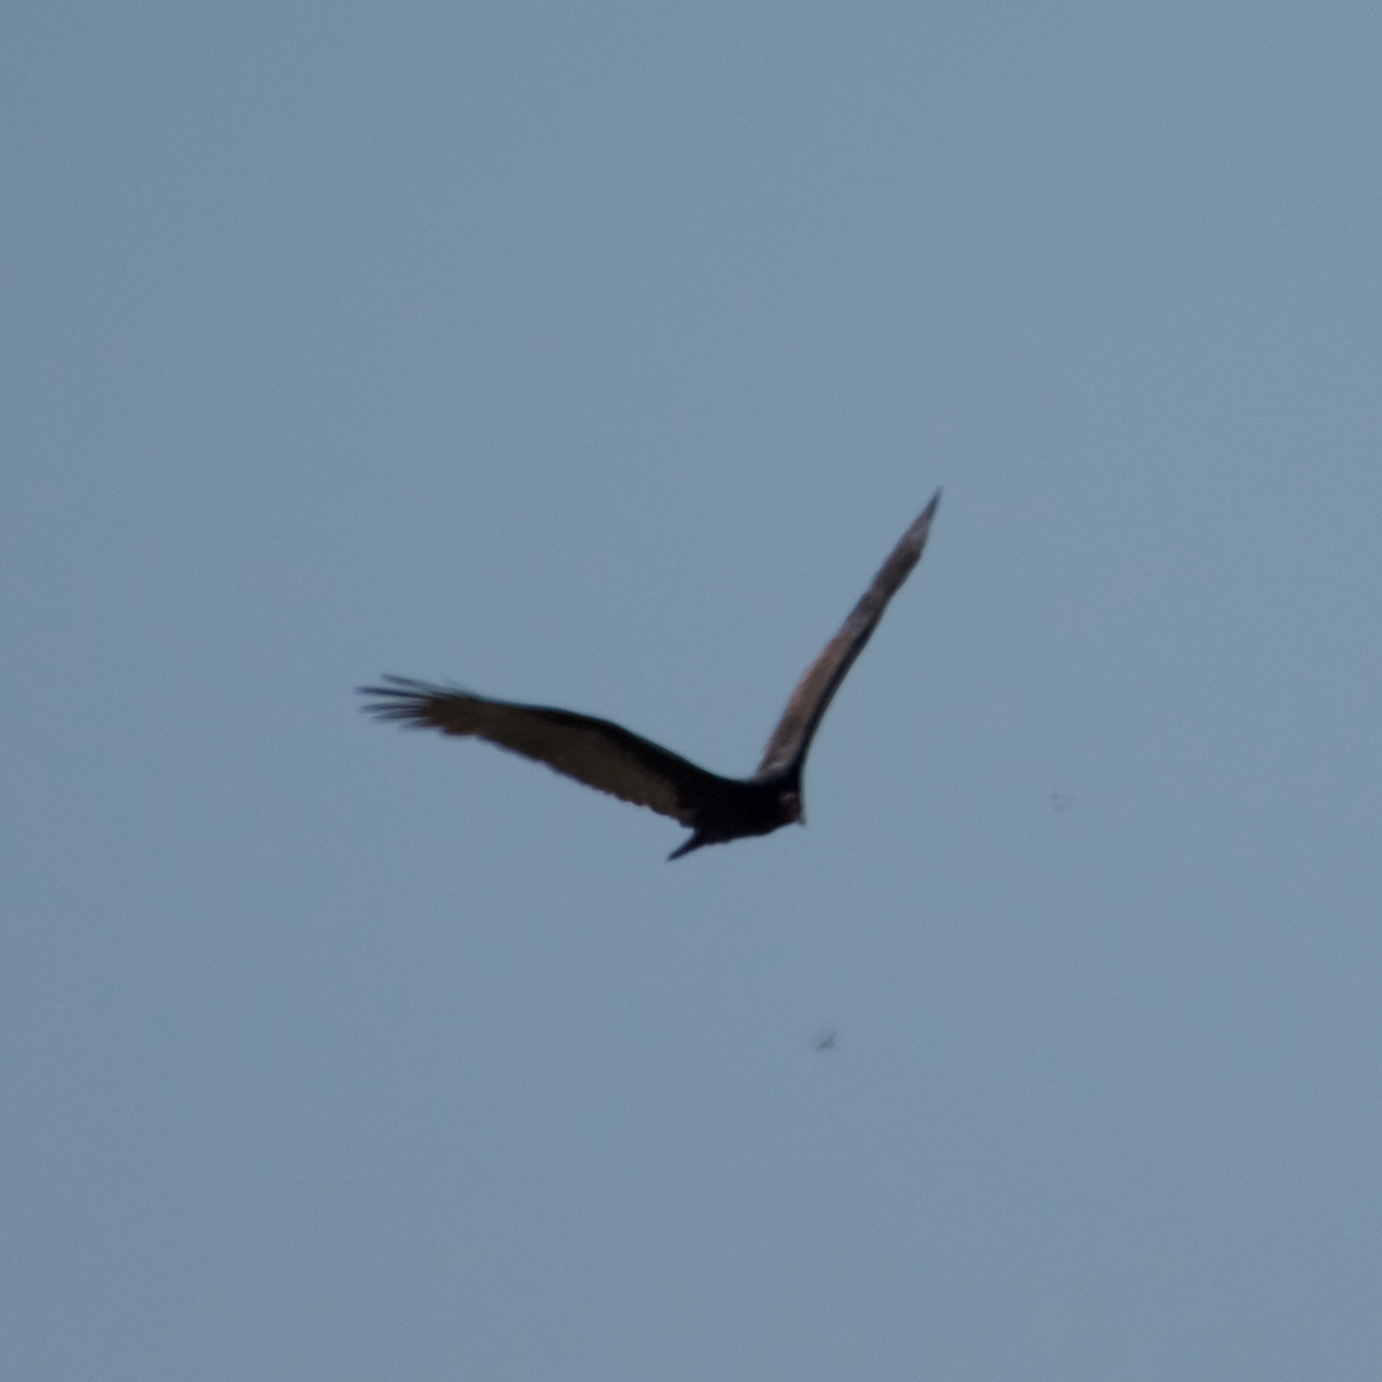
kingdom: Animalia
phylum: Chordata
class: Aves
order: Accipitriformes
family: Cathartidae
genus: Cathartes
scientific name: Cathartes aura
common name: Turkey vulture
